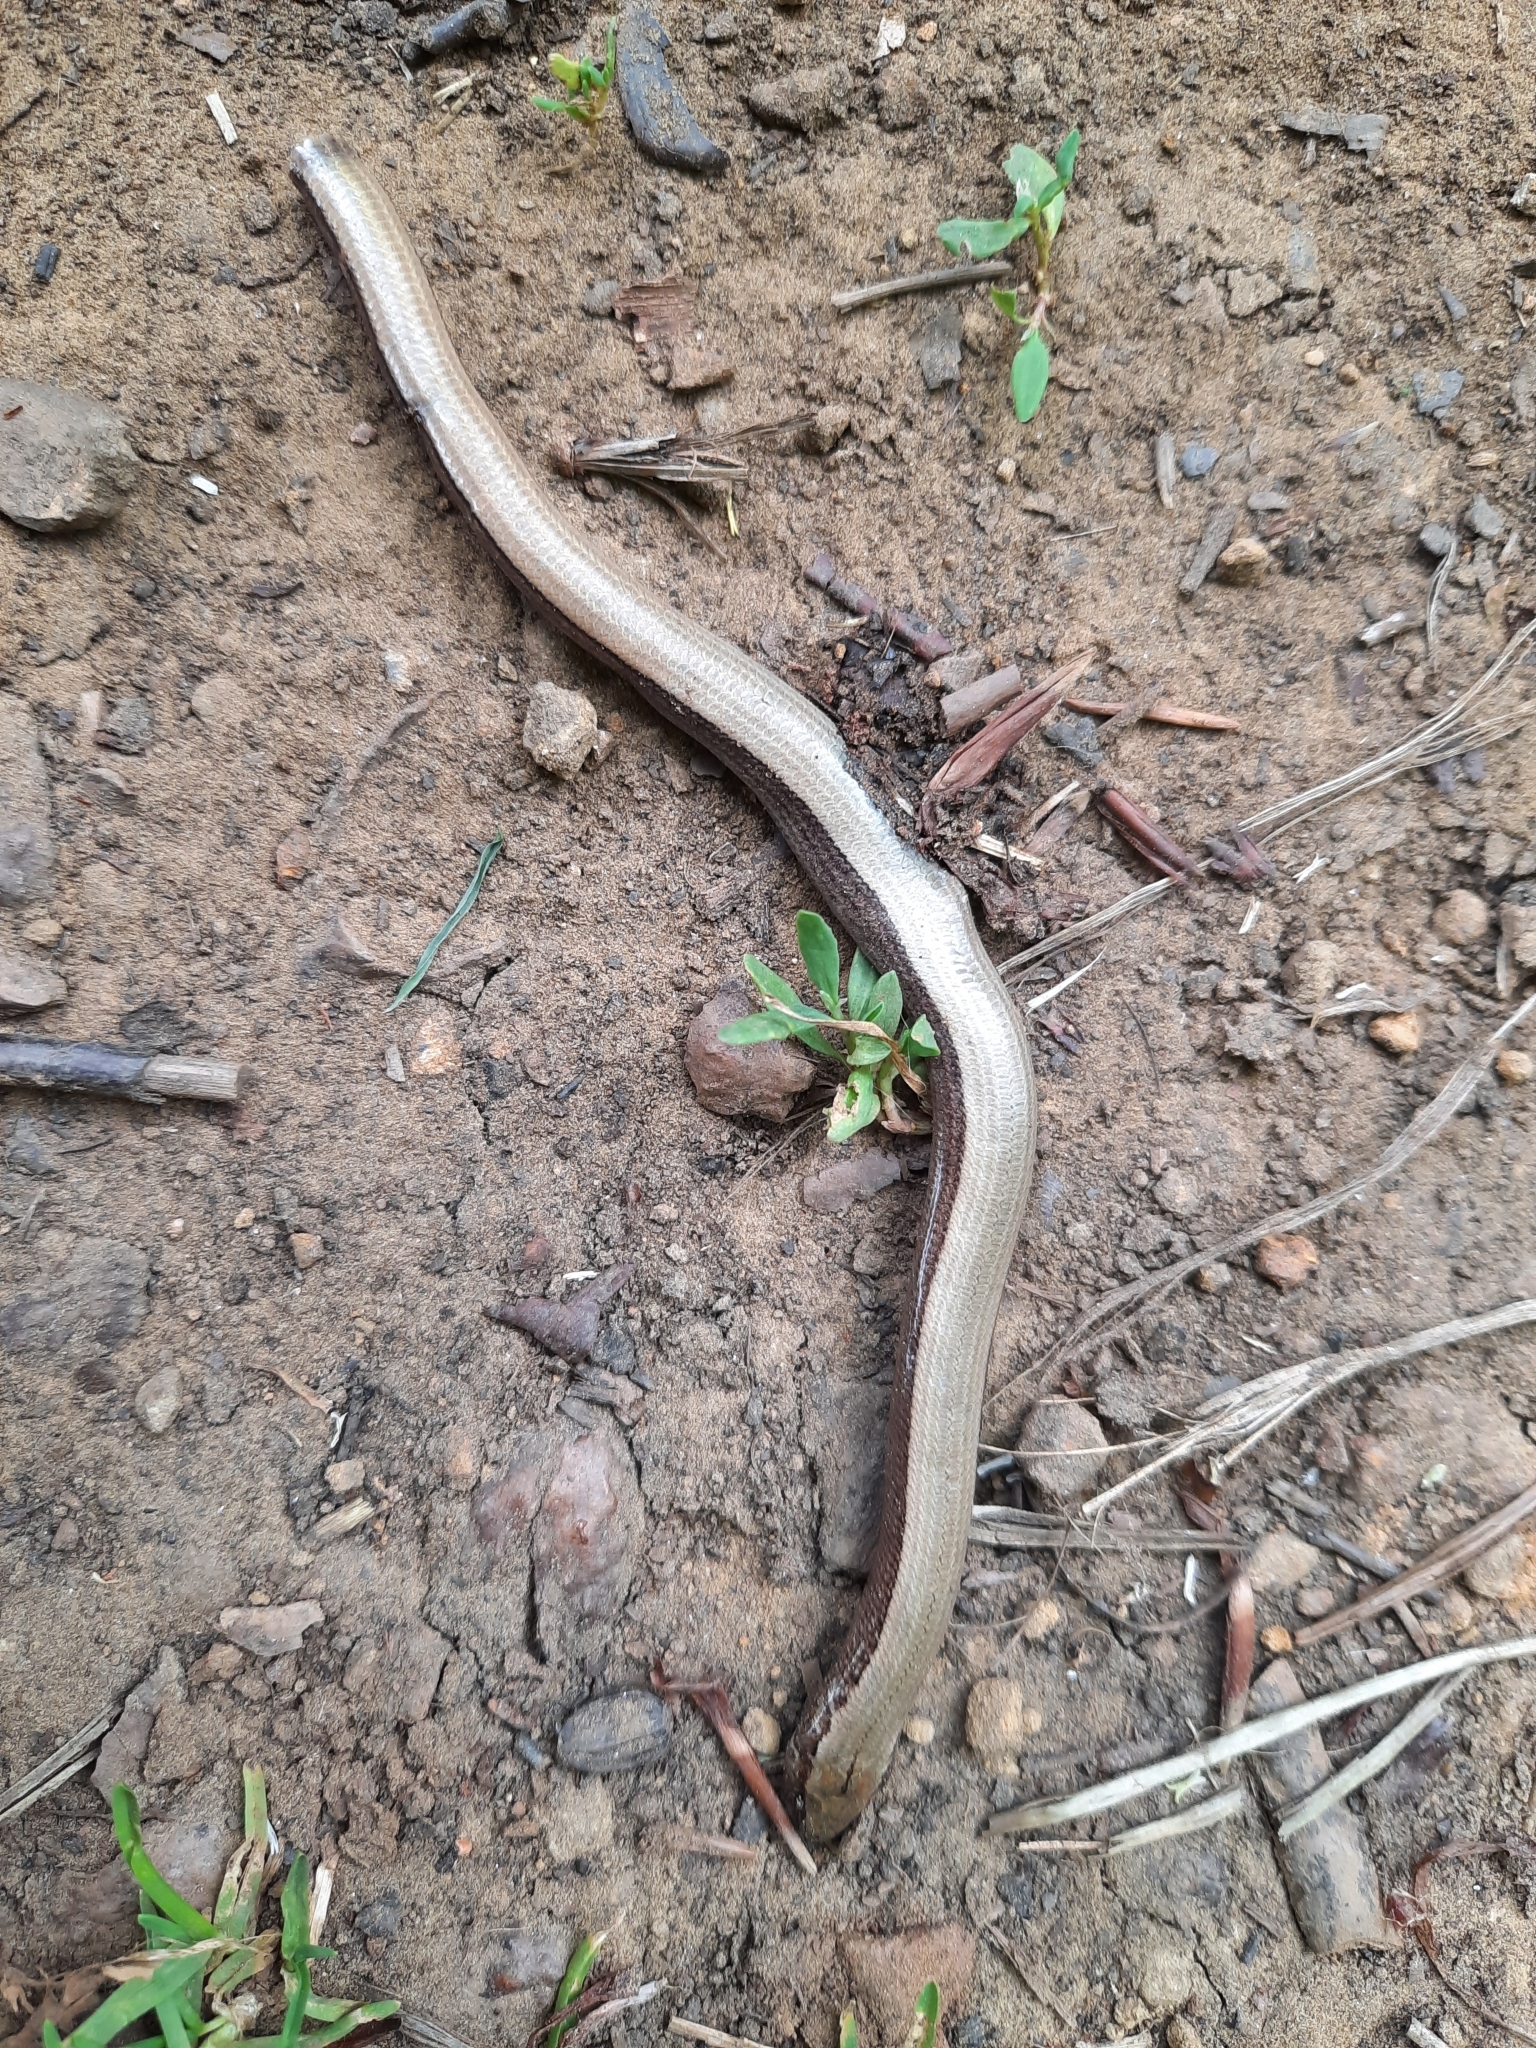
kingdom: Animalia
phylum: Chordata
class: Squamata
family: Anguidae
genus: Anguis
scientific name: Anguis fragilis
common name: Slow worm
